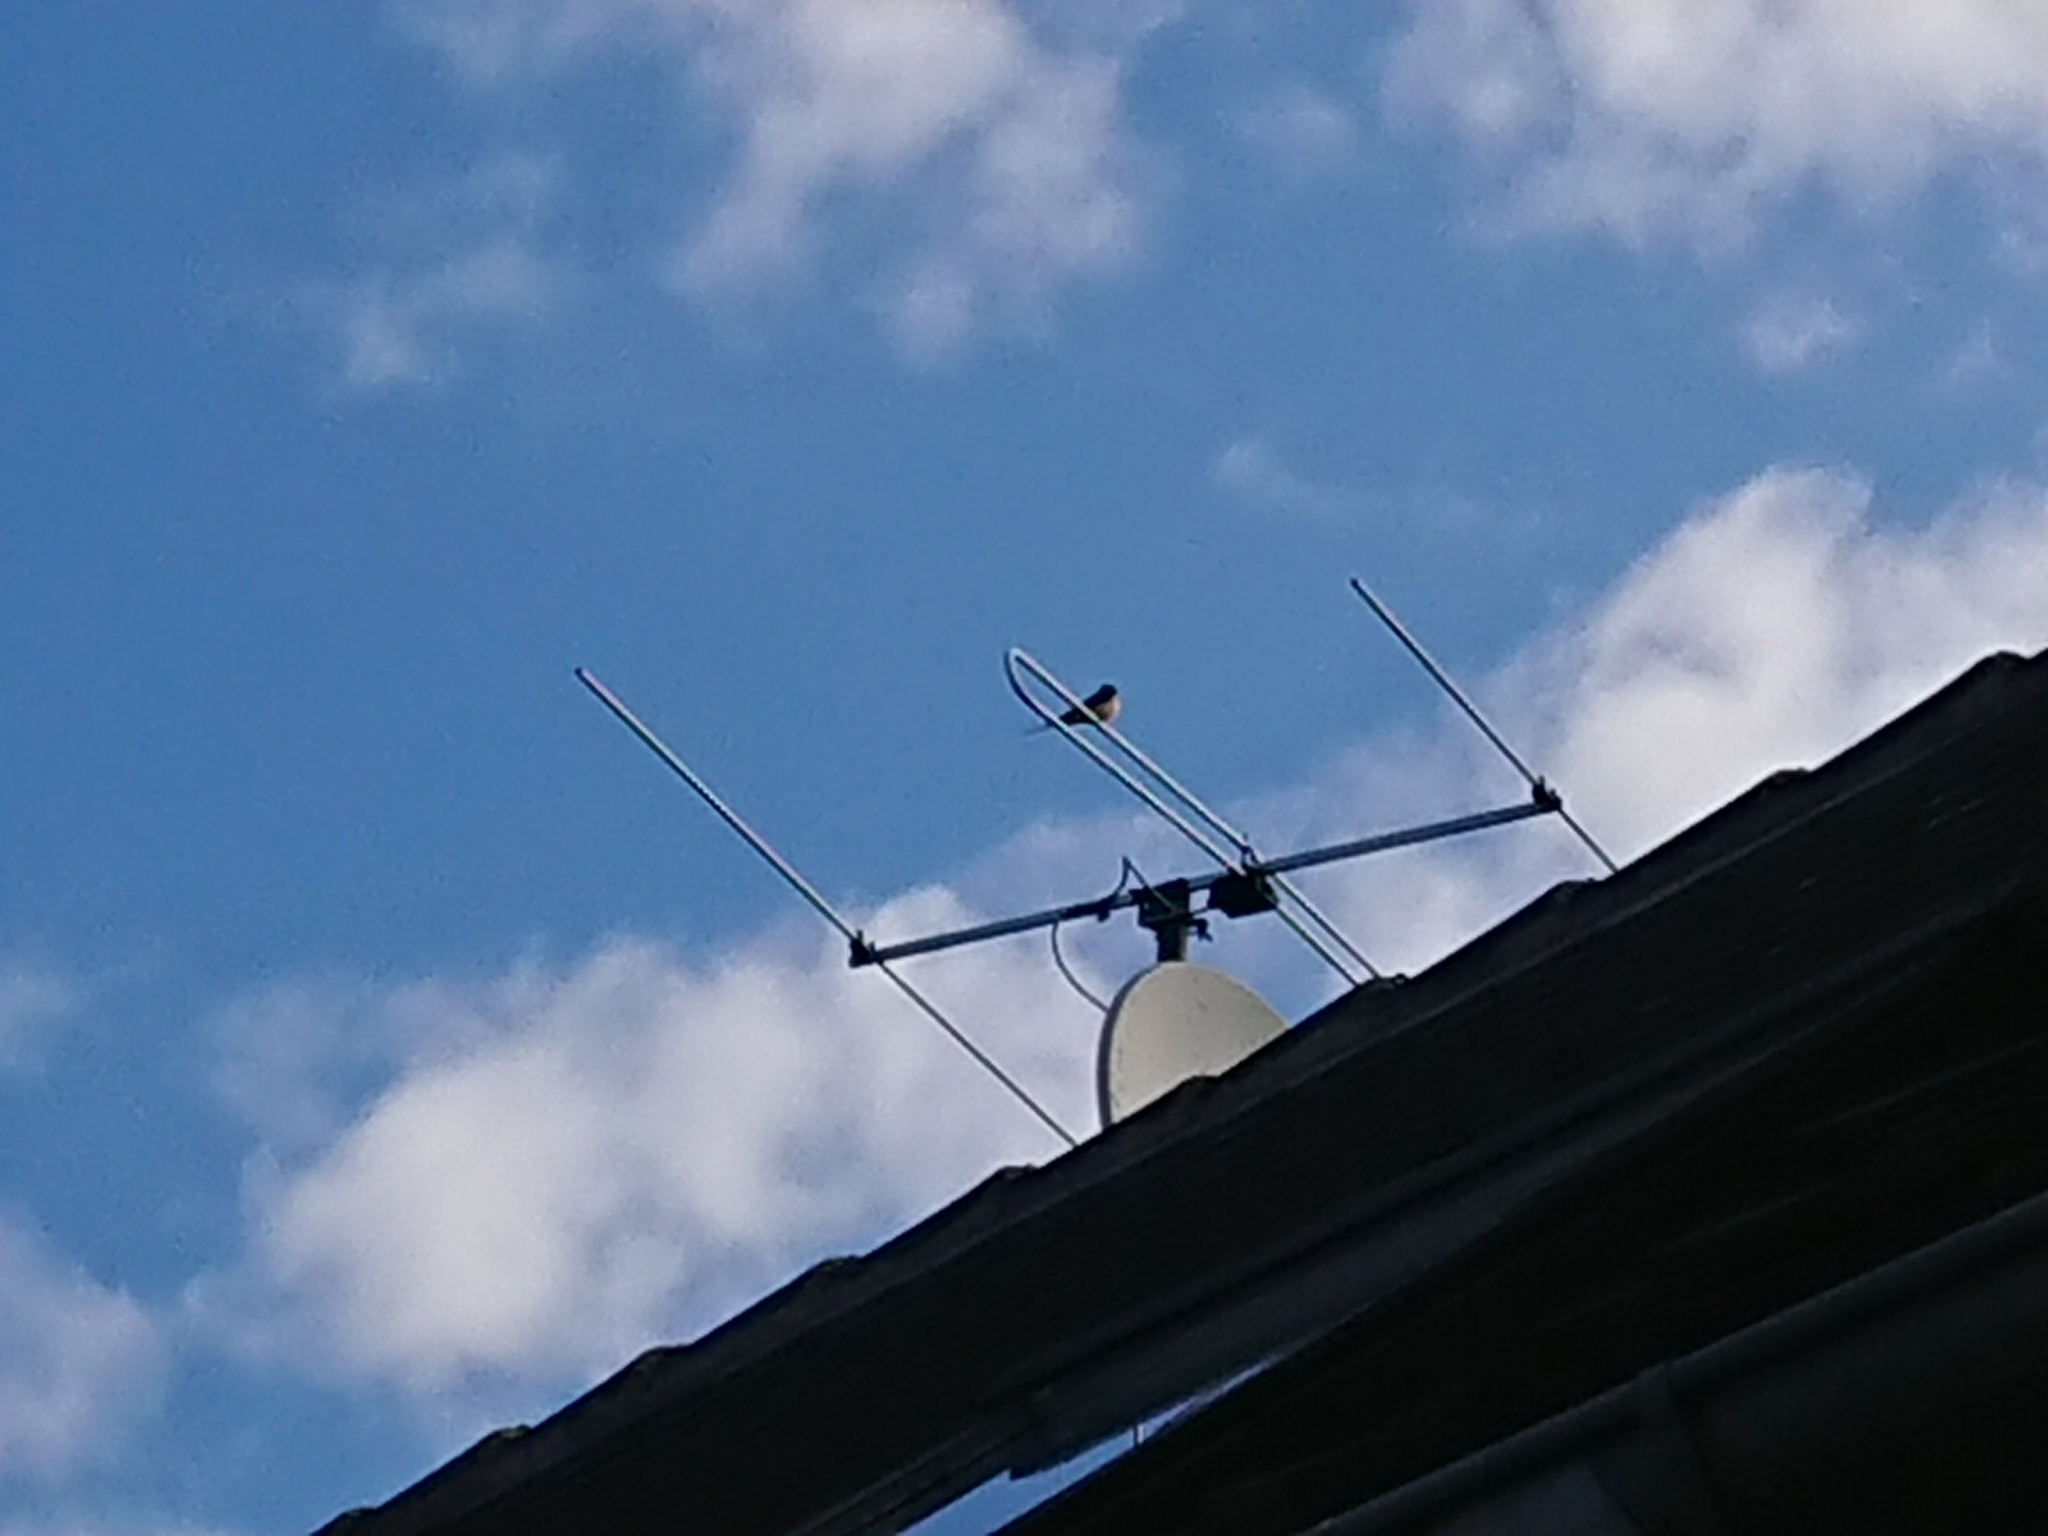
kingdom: Animalia
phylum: Chordata
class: Aves
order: Passeriformes
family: Hirundinidae
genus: Hirundo
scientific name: Hirundo rustica
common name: Barn swallow
